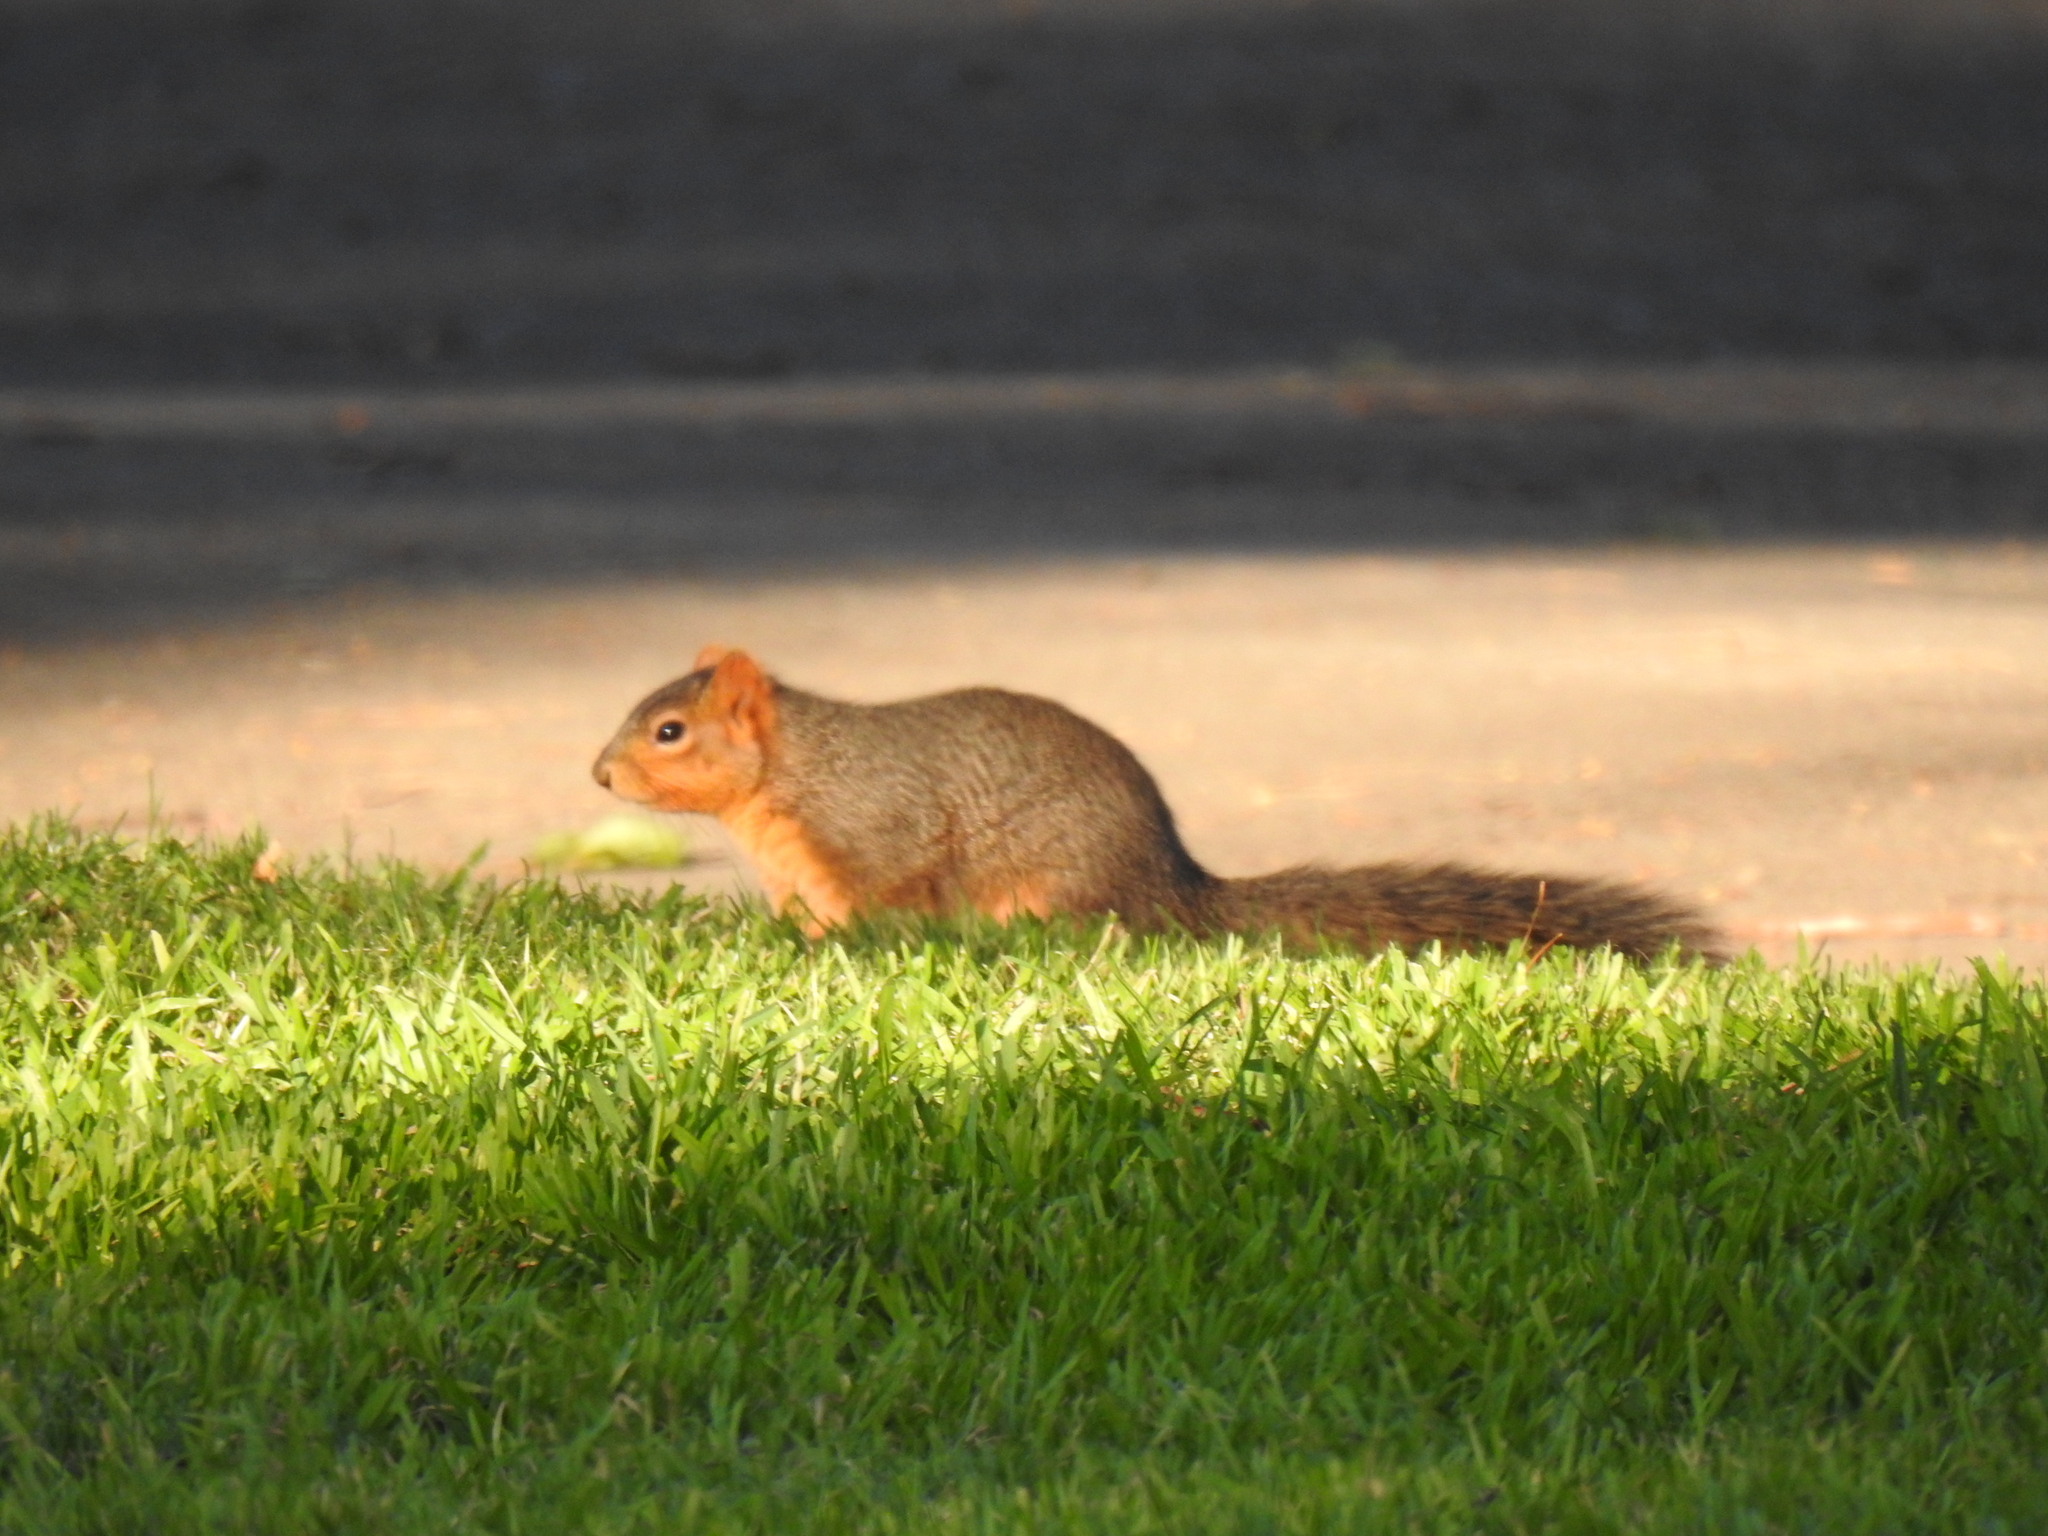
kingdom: Animalia
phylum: Chordata
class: Mammalia
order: Rodentia
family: Sciuridae
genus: Sciurus
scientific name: Sciurus niger
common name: Fox squirrel
